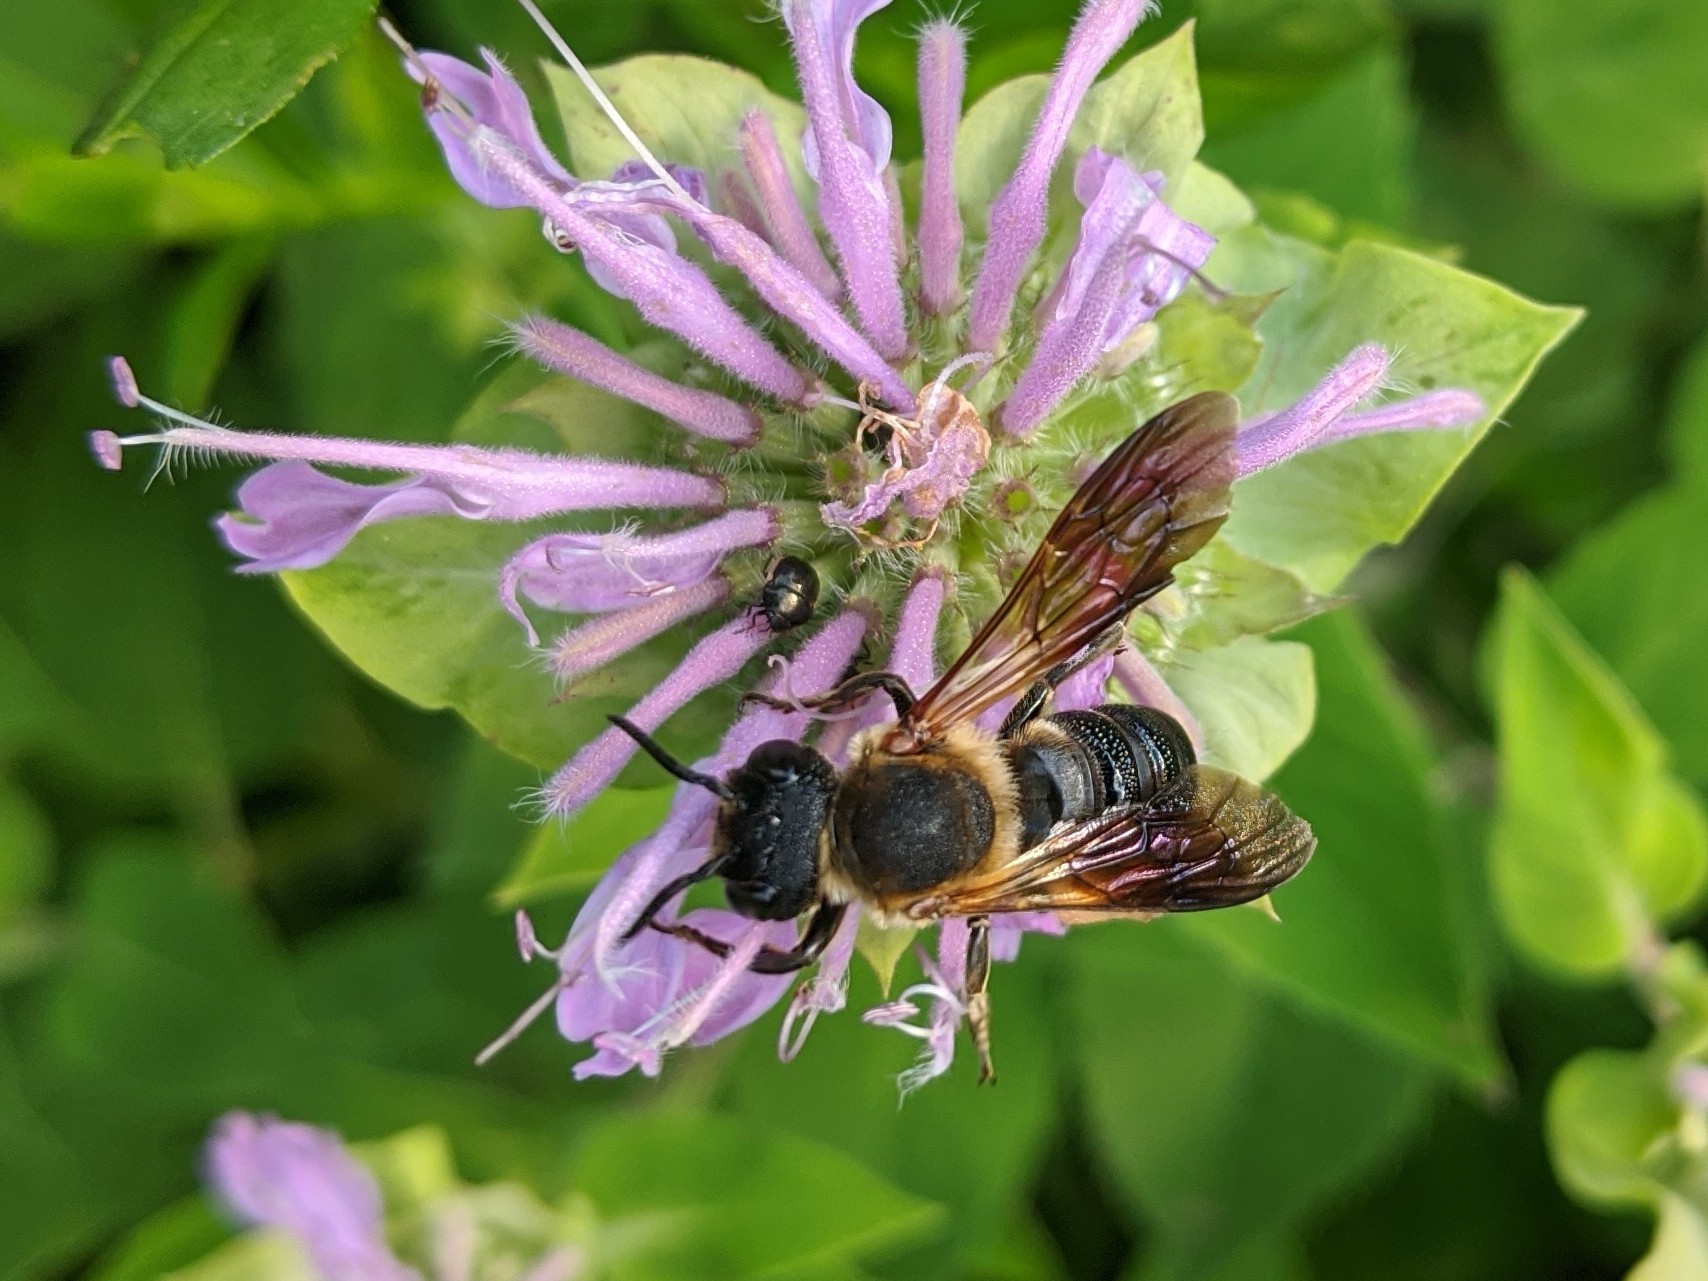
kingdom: Animalia
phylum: Arthropoda
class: Insecta
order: Hymenoptera
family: Megachilidae
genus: Megachile
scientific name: Megachile sculpturalis
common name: Sculptured resin bee
